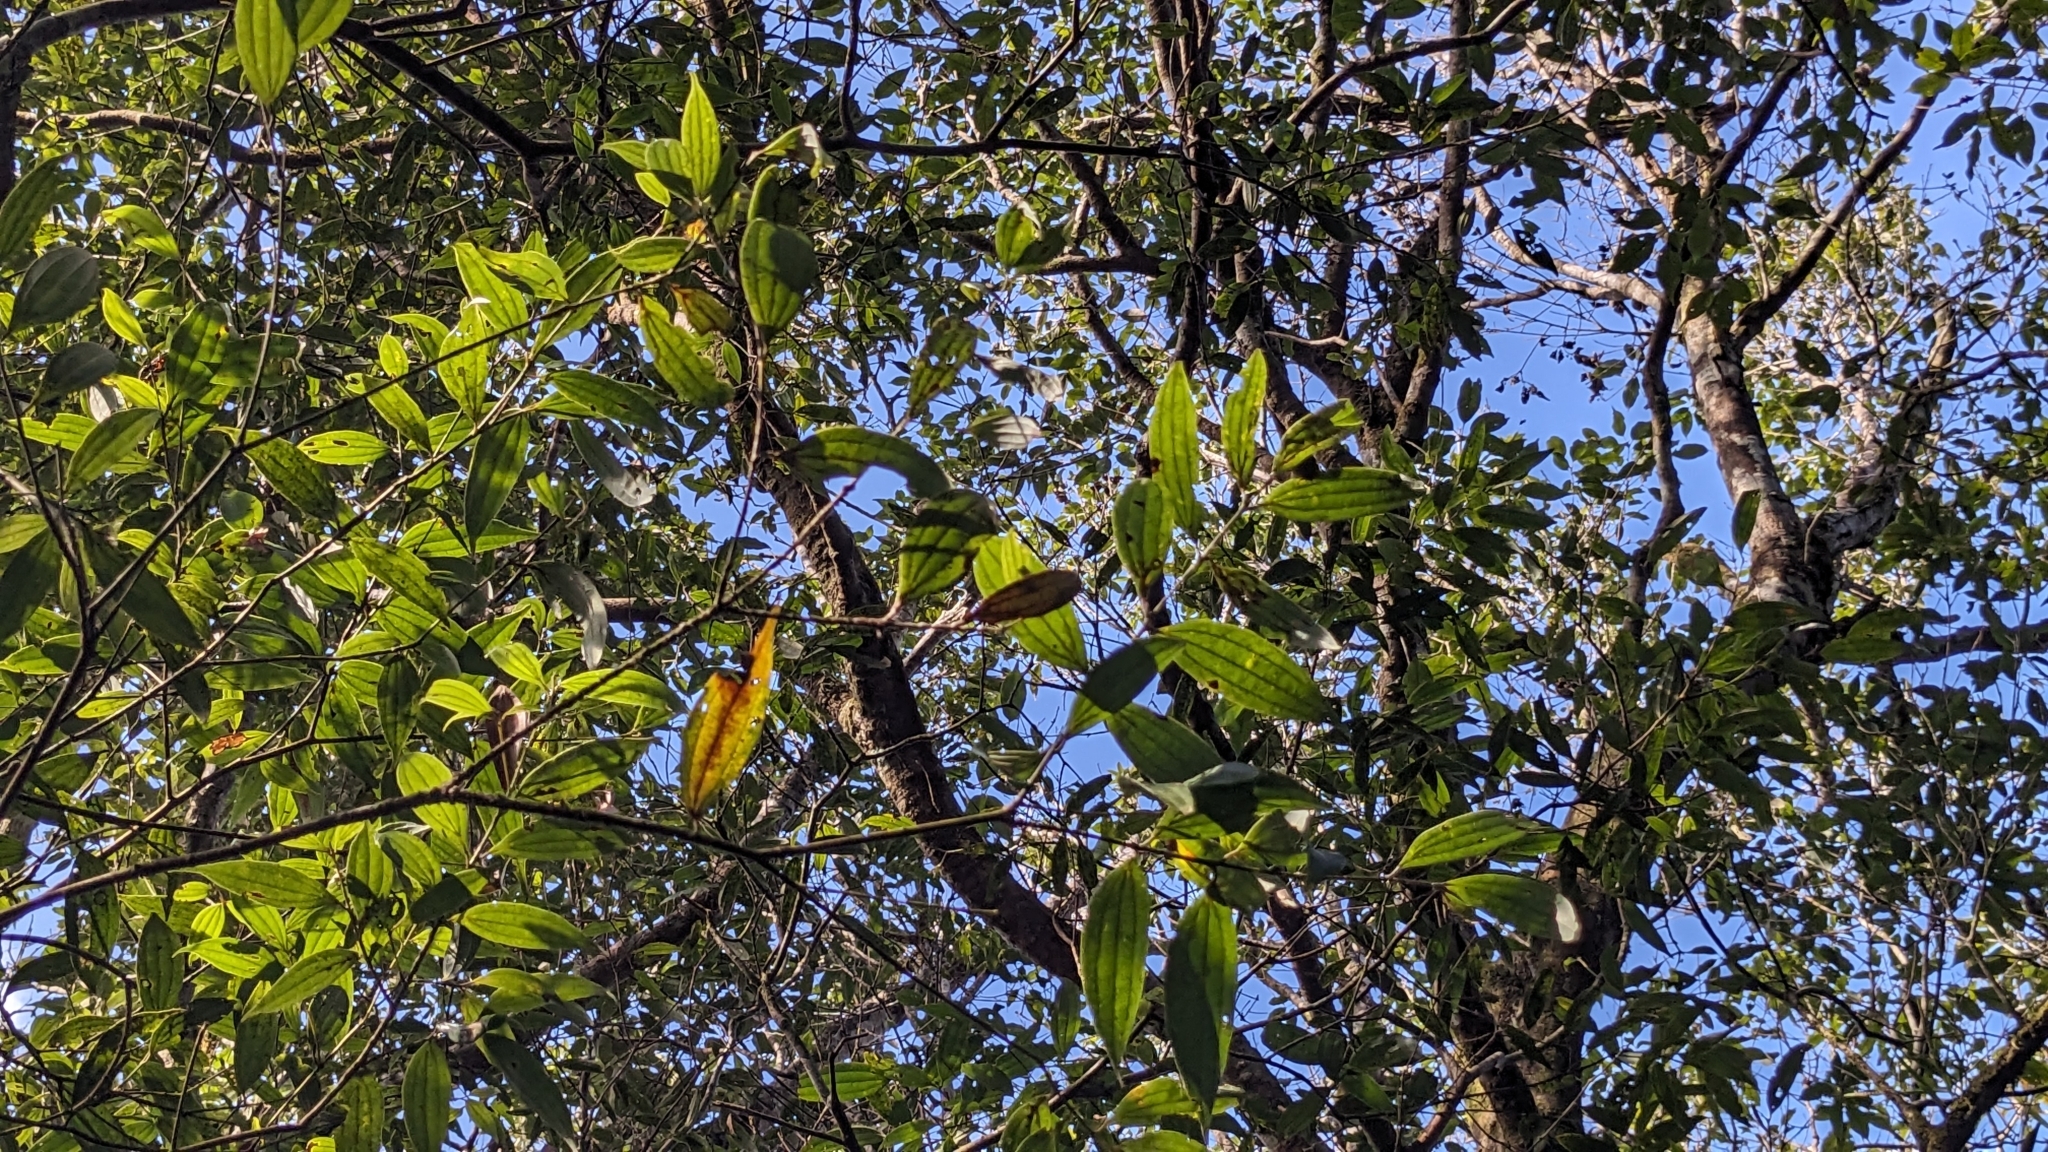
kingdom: Plantae
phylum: Tracheophyta
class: Magnoliopsida
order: Laurales
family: Lauraceae
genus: Cinnamomum
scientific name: Cinnamomum subavenium
